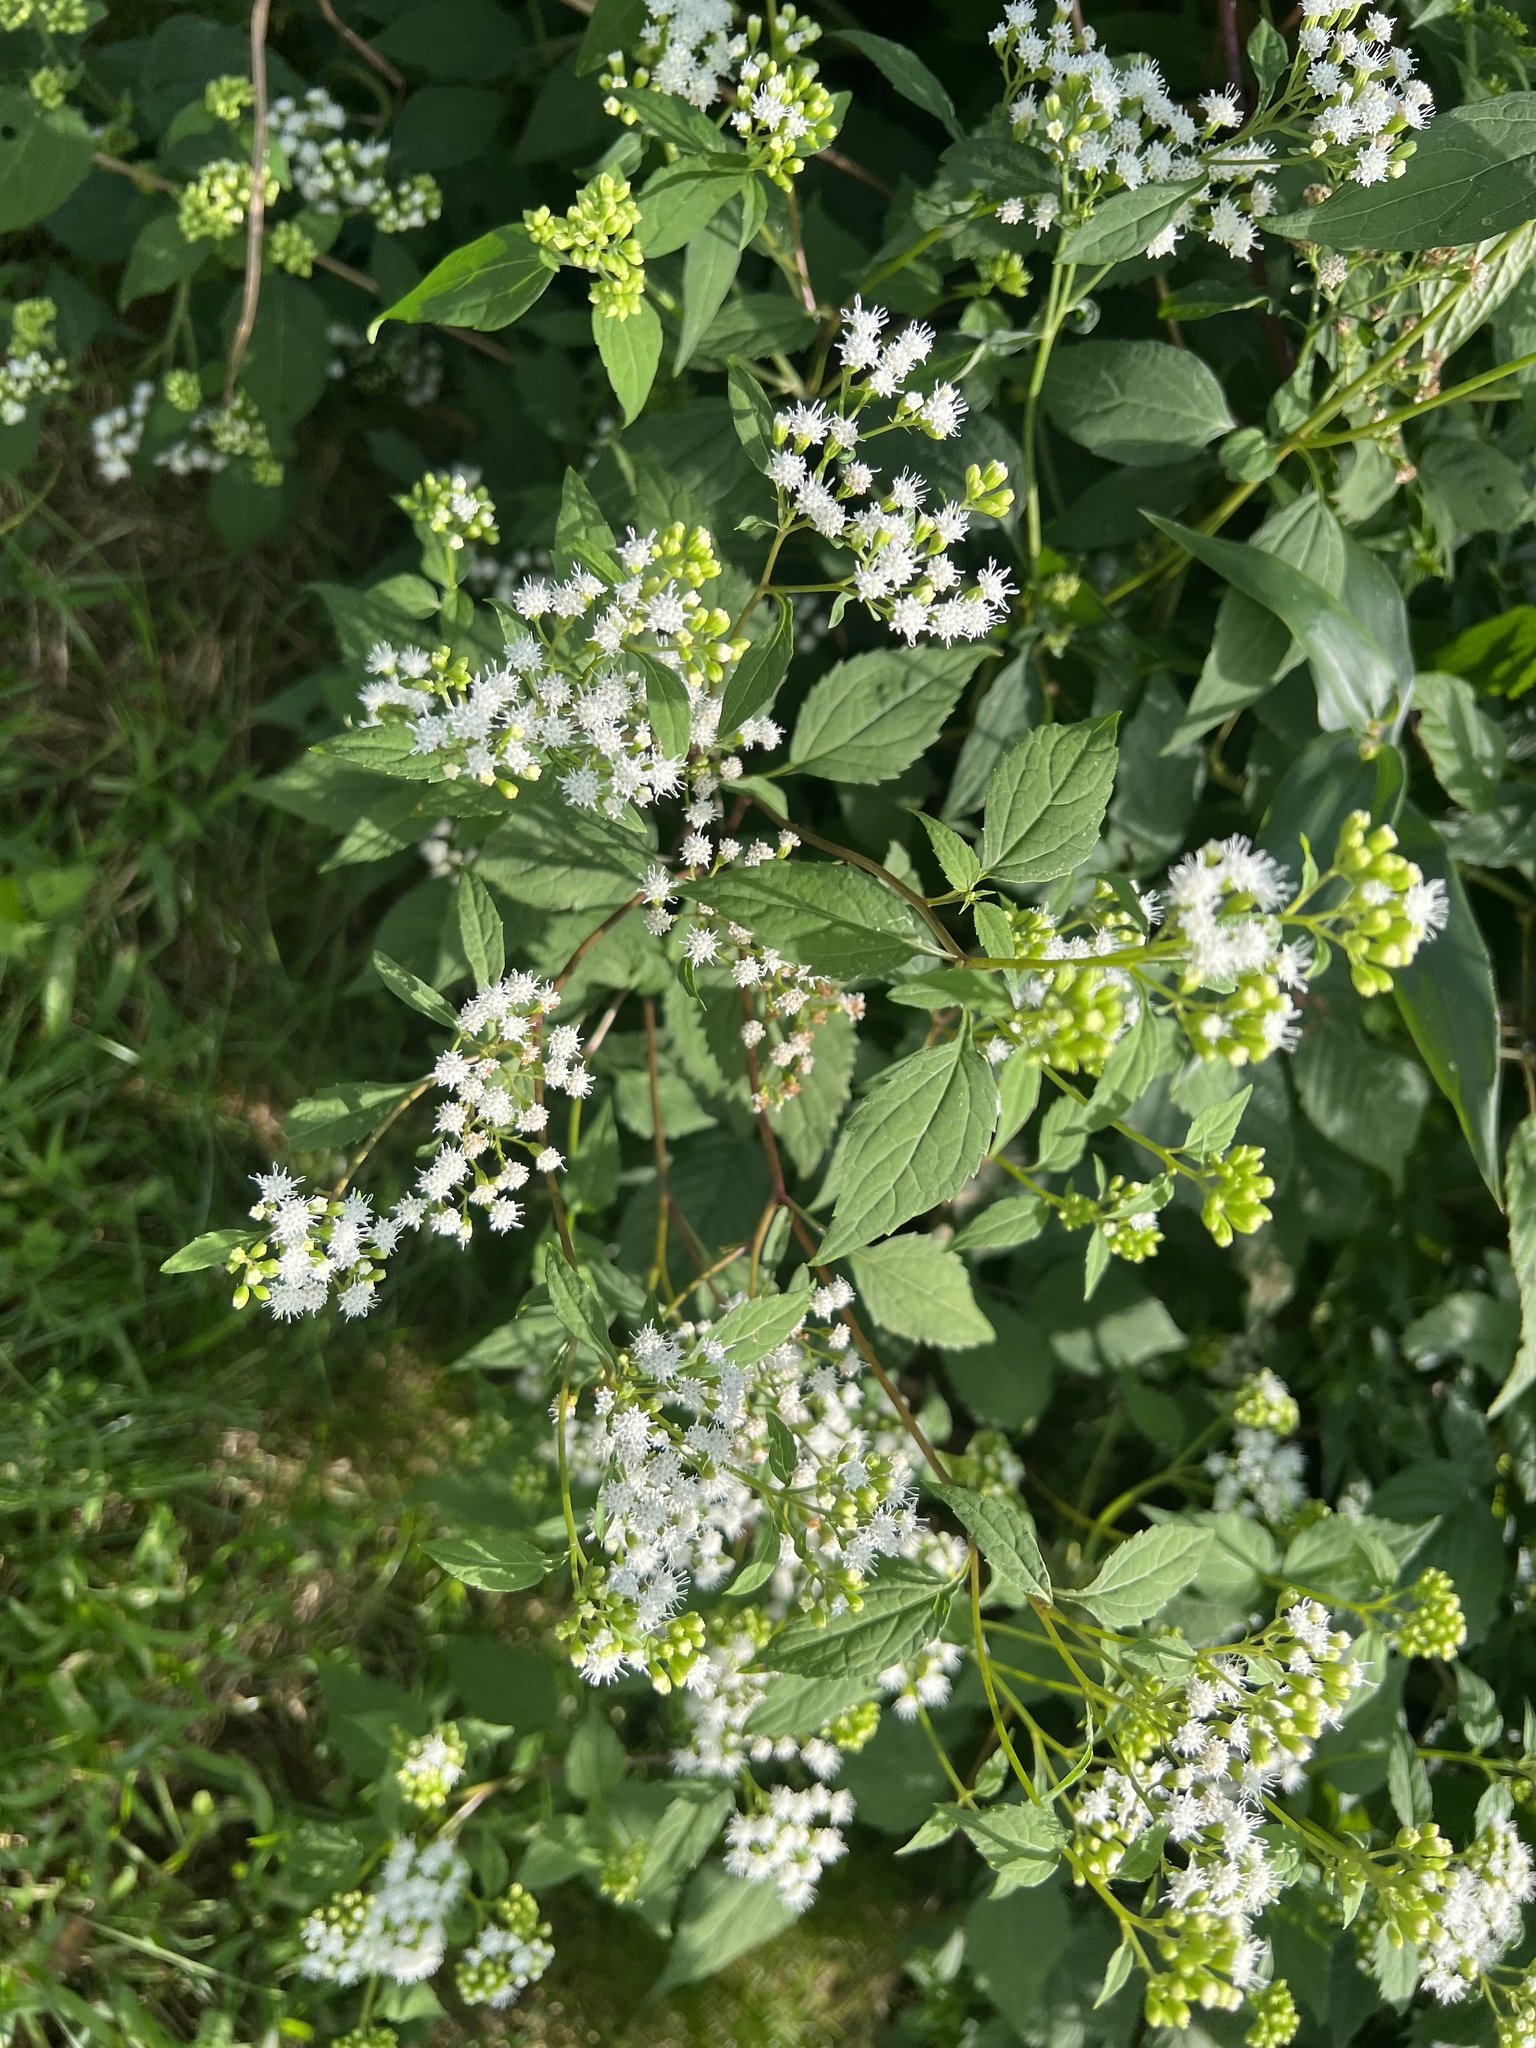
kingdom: Plantae
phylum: Tracheophyta
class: Magnoliopsida
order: Asterales
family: Asteraceae
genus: Ageratina
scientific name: Ageratina altissima
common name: White snakeroot
